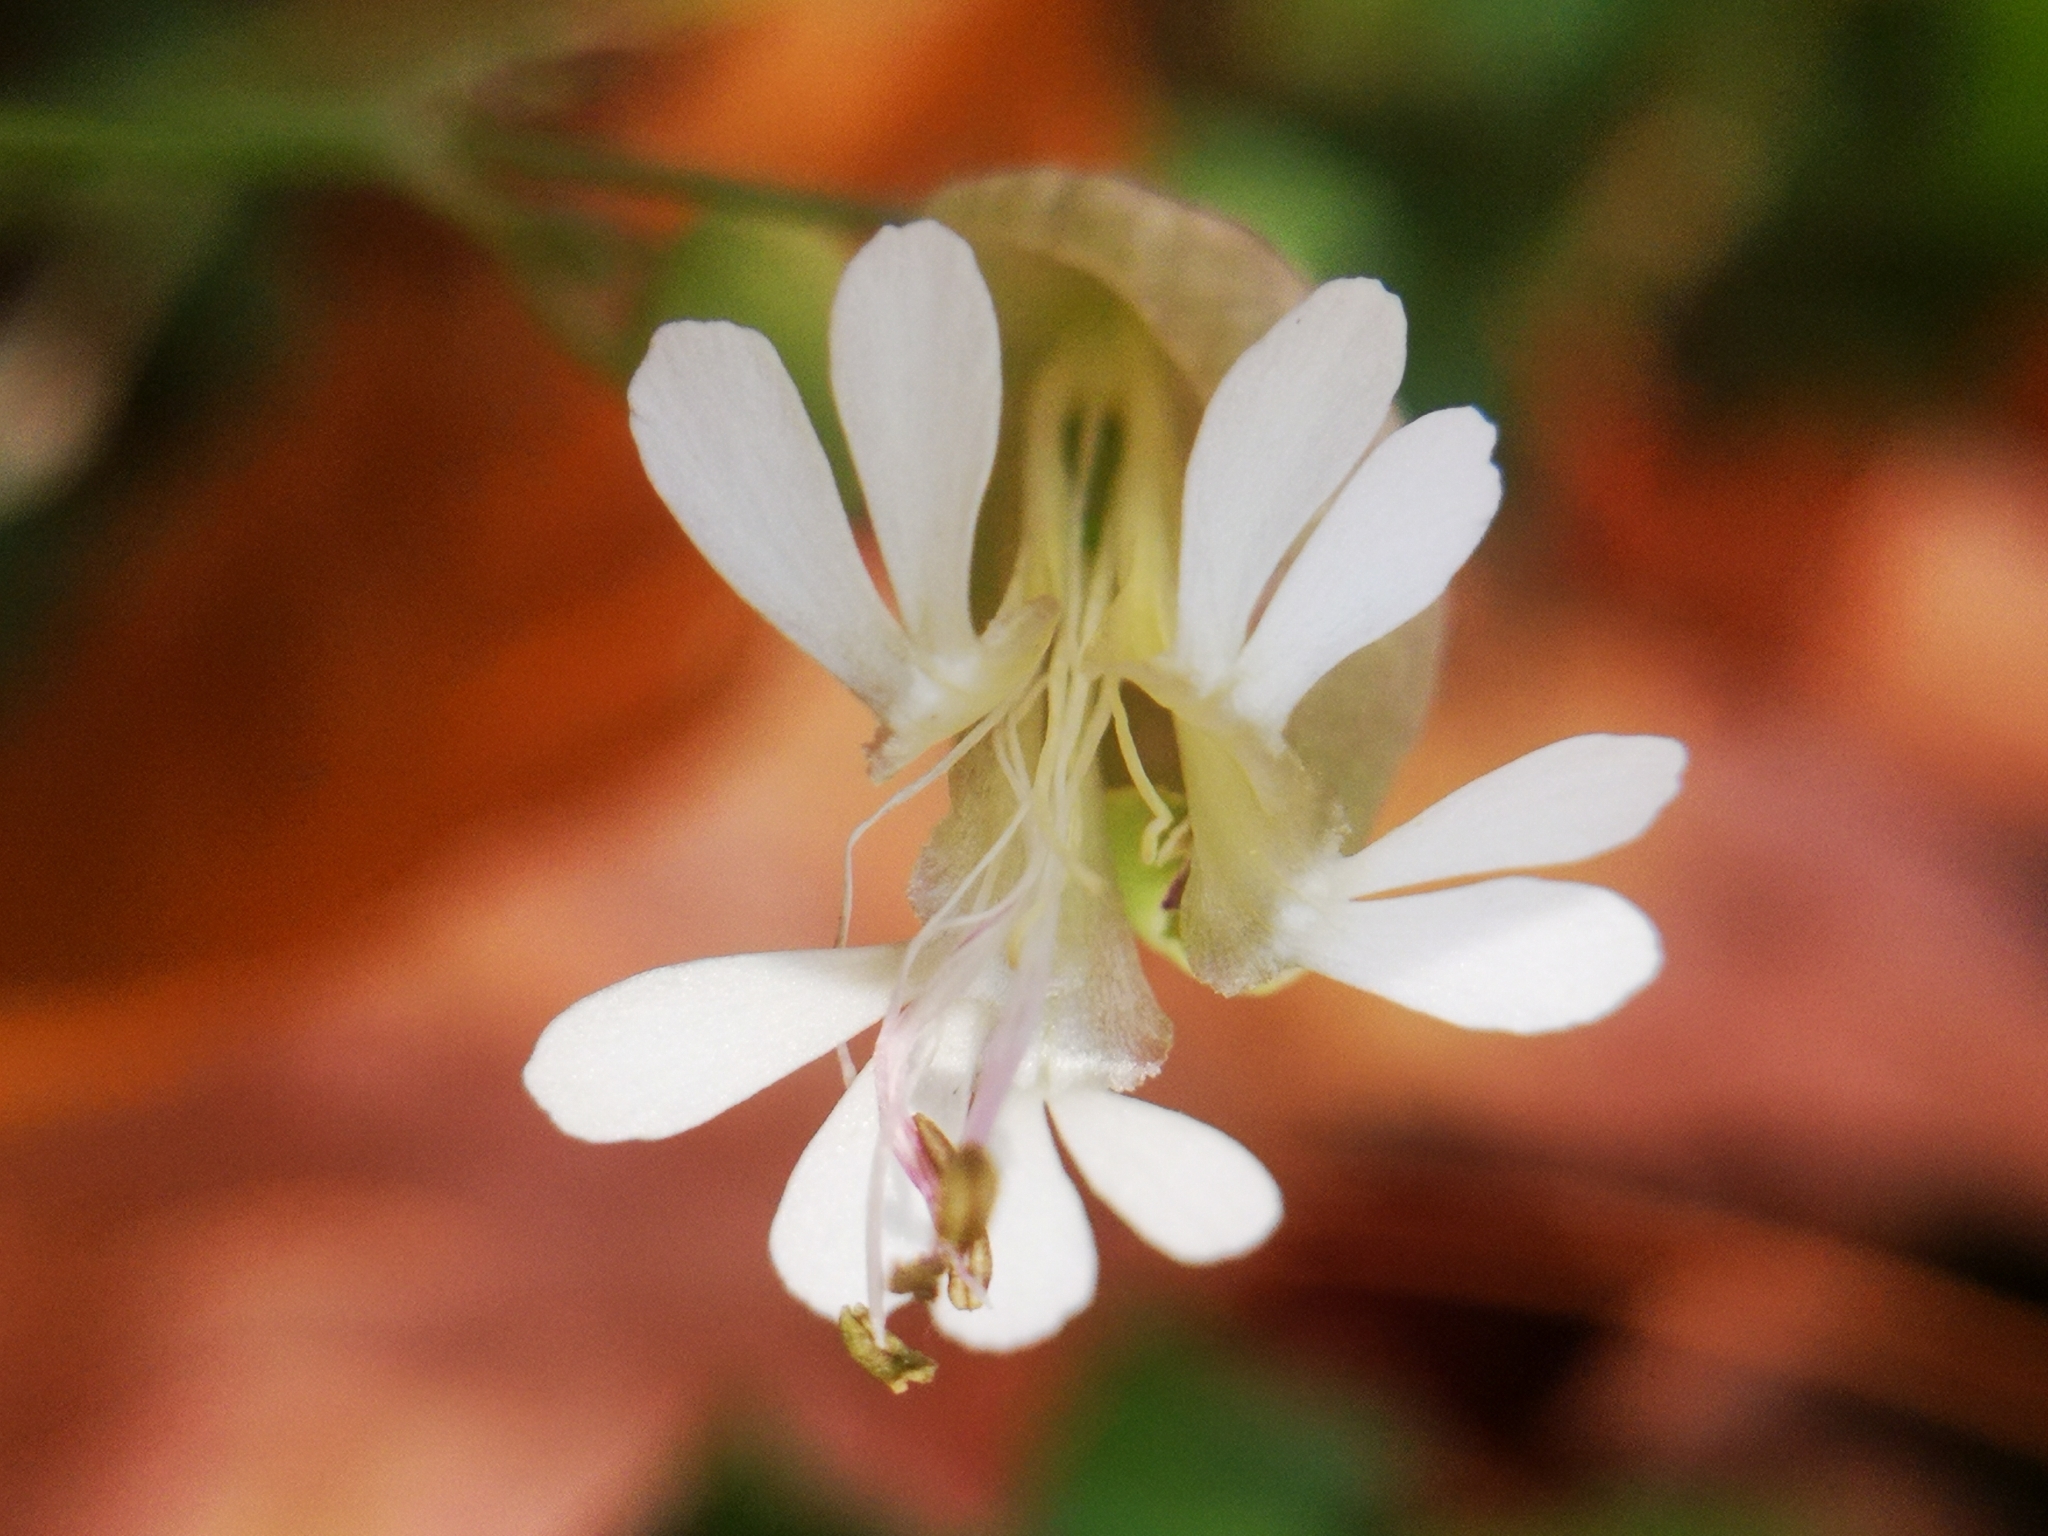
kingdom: Plantae
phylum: Tracheophyta
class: Magnoliopsida
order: Caryophyllales
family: Caryophyllaceae
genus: Silene
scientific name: Silene vulgaris
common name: Bladder campion
